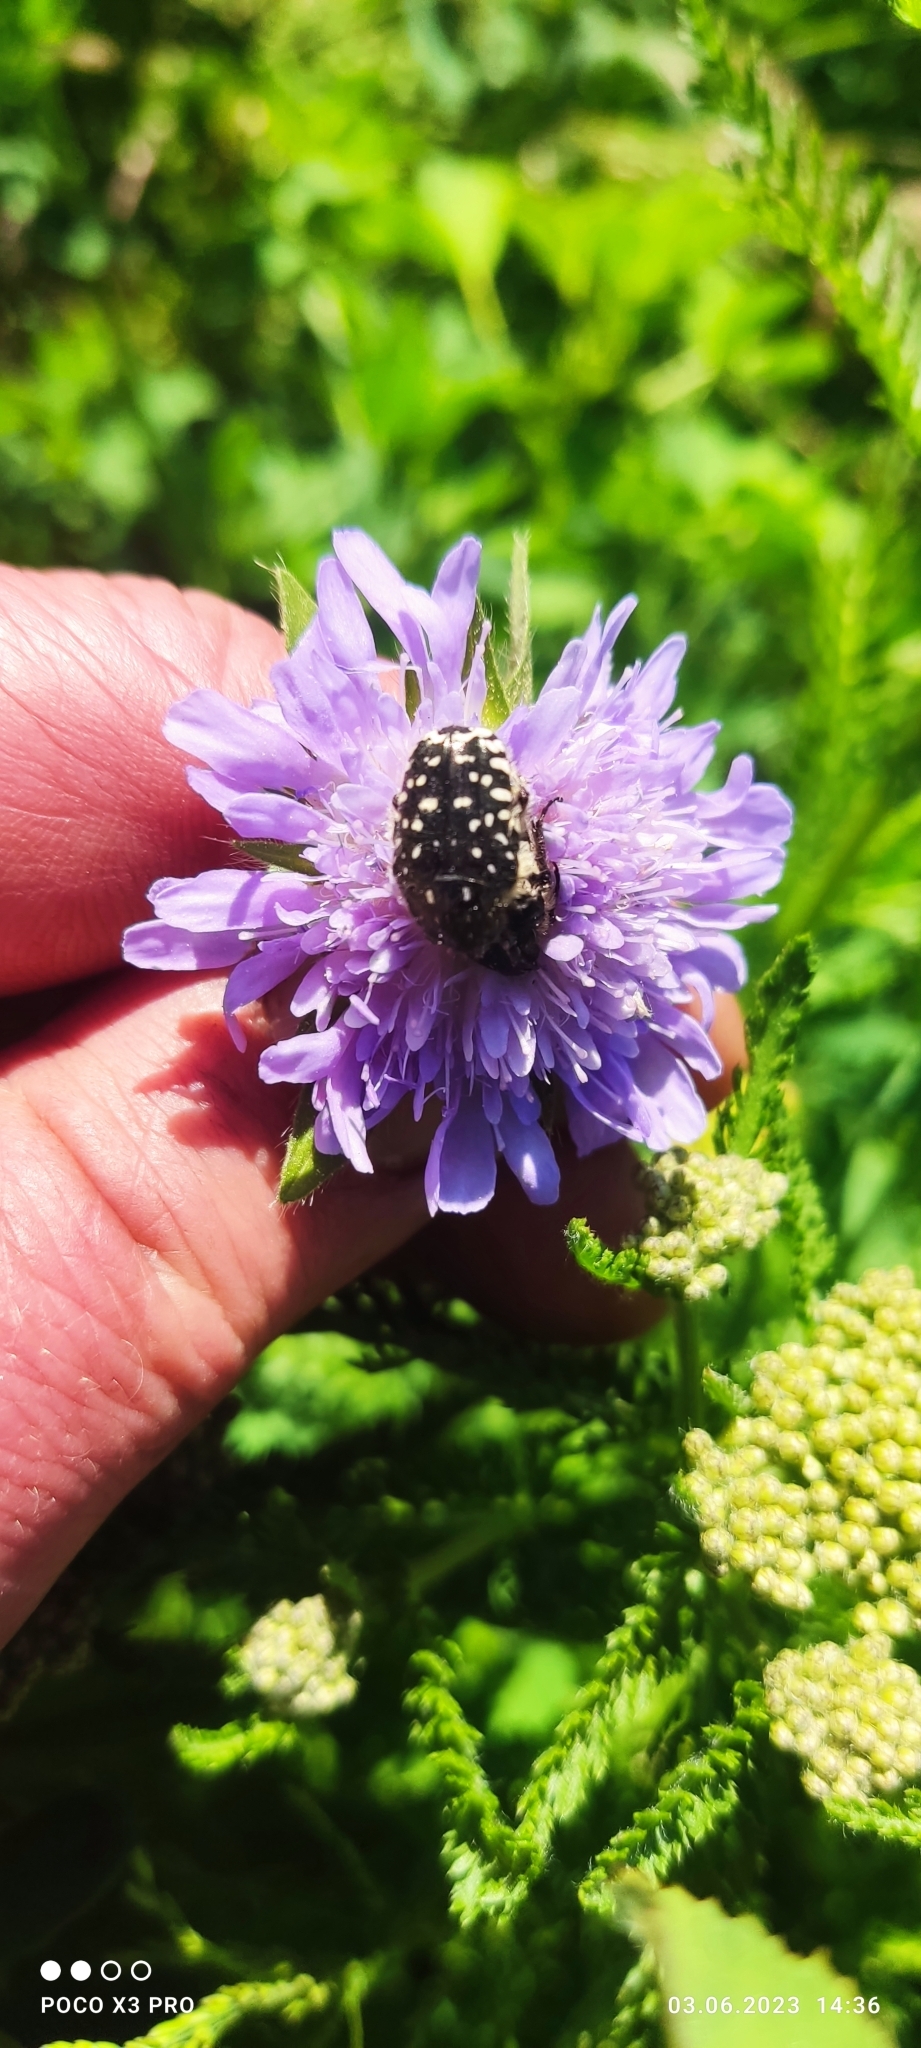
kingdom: Animalia
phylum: Arthropoda
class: Insecta
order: Coleoptera
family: Scarabaeidae
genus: Oxythyrea
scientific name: Oxythyrea funesta
